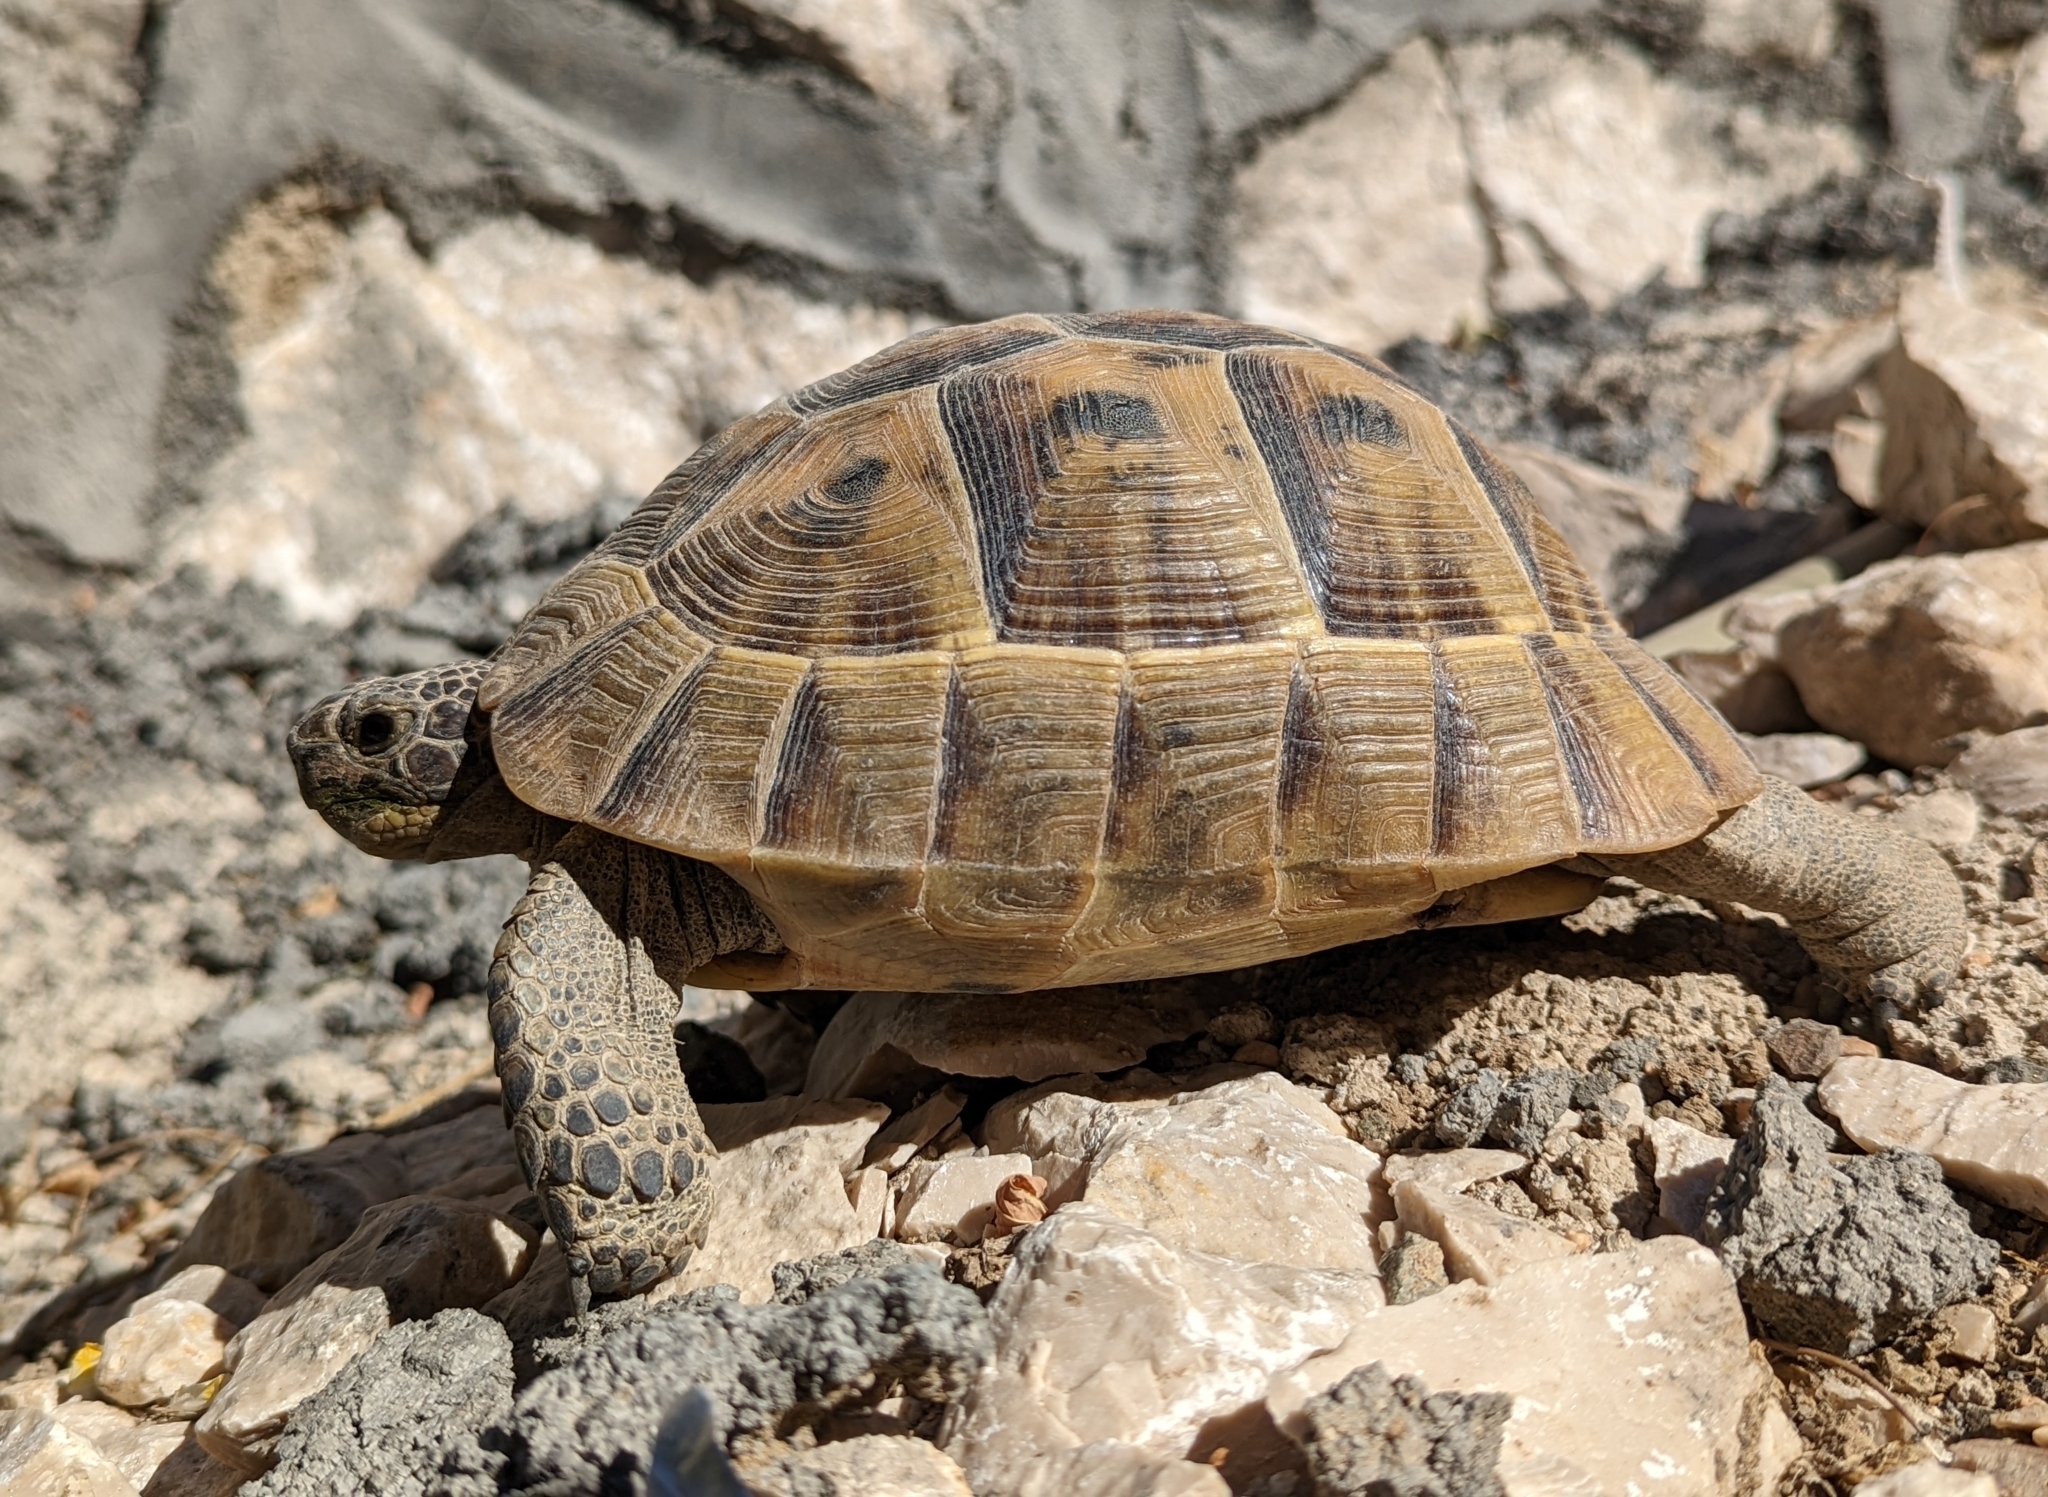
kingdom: Animalia
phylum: Chordata
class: Testudines
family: Testudinidae
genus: Testudo
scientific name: Testudo graeca
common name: Common tortoise
